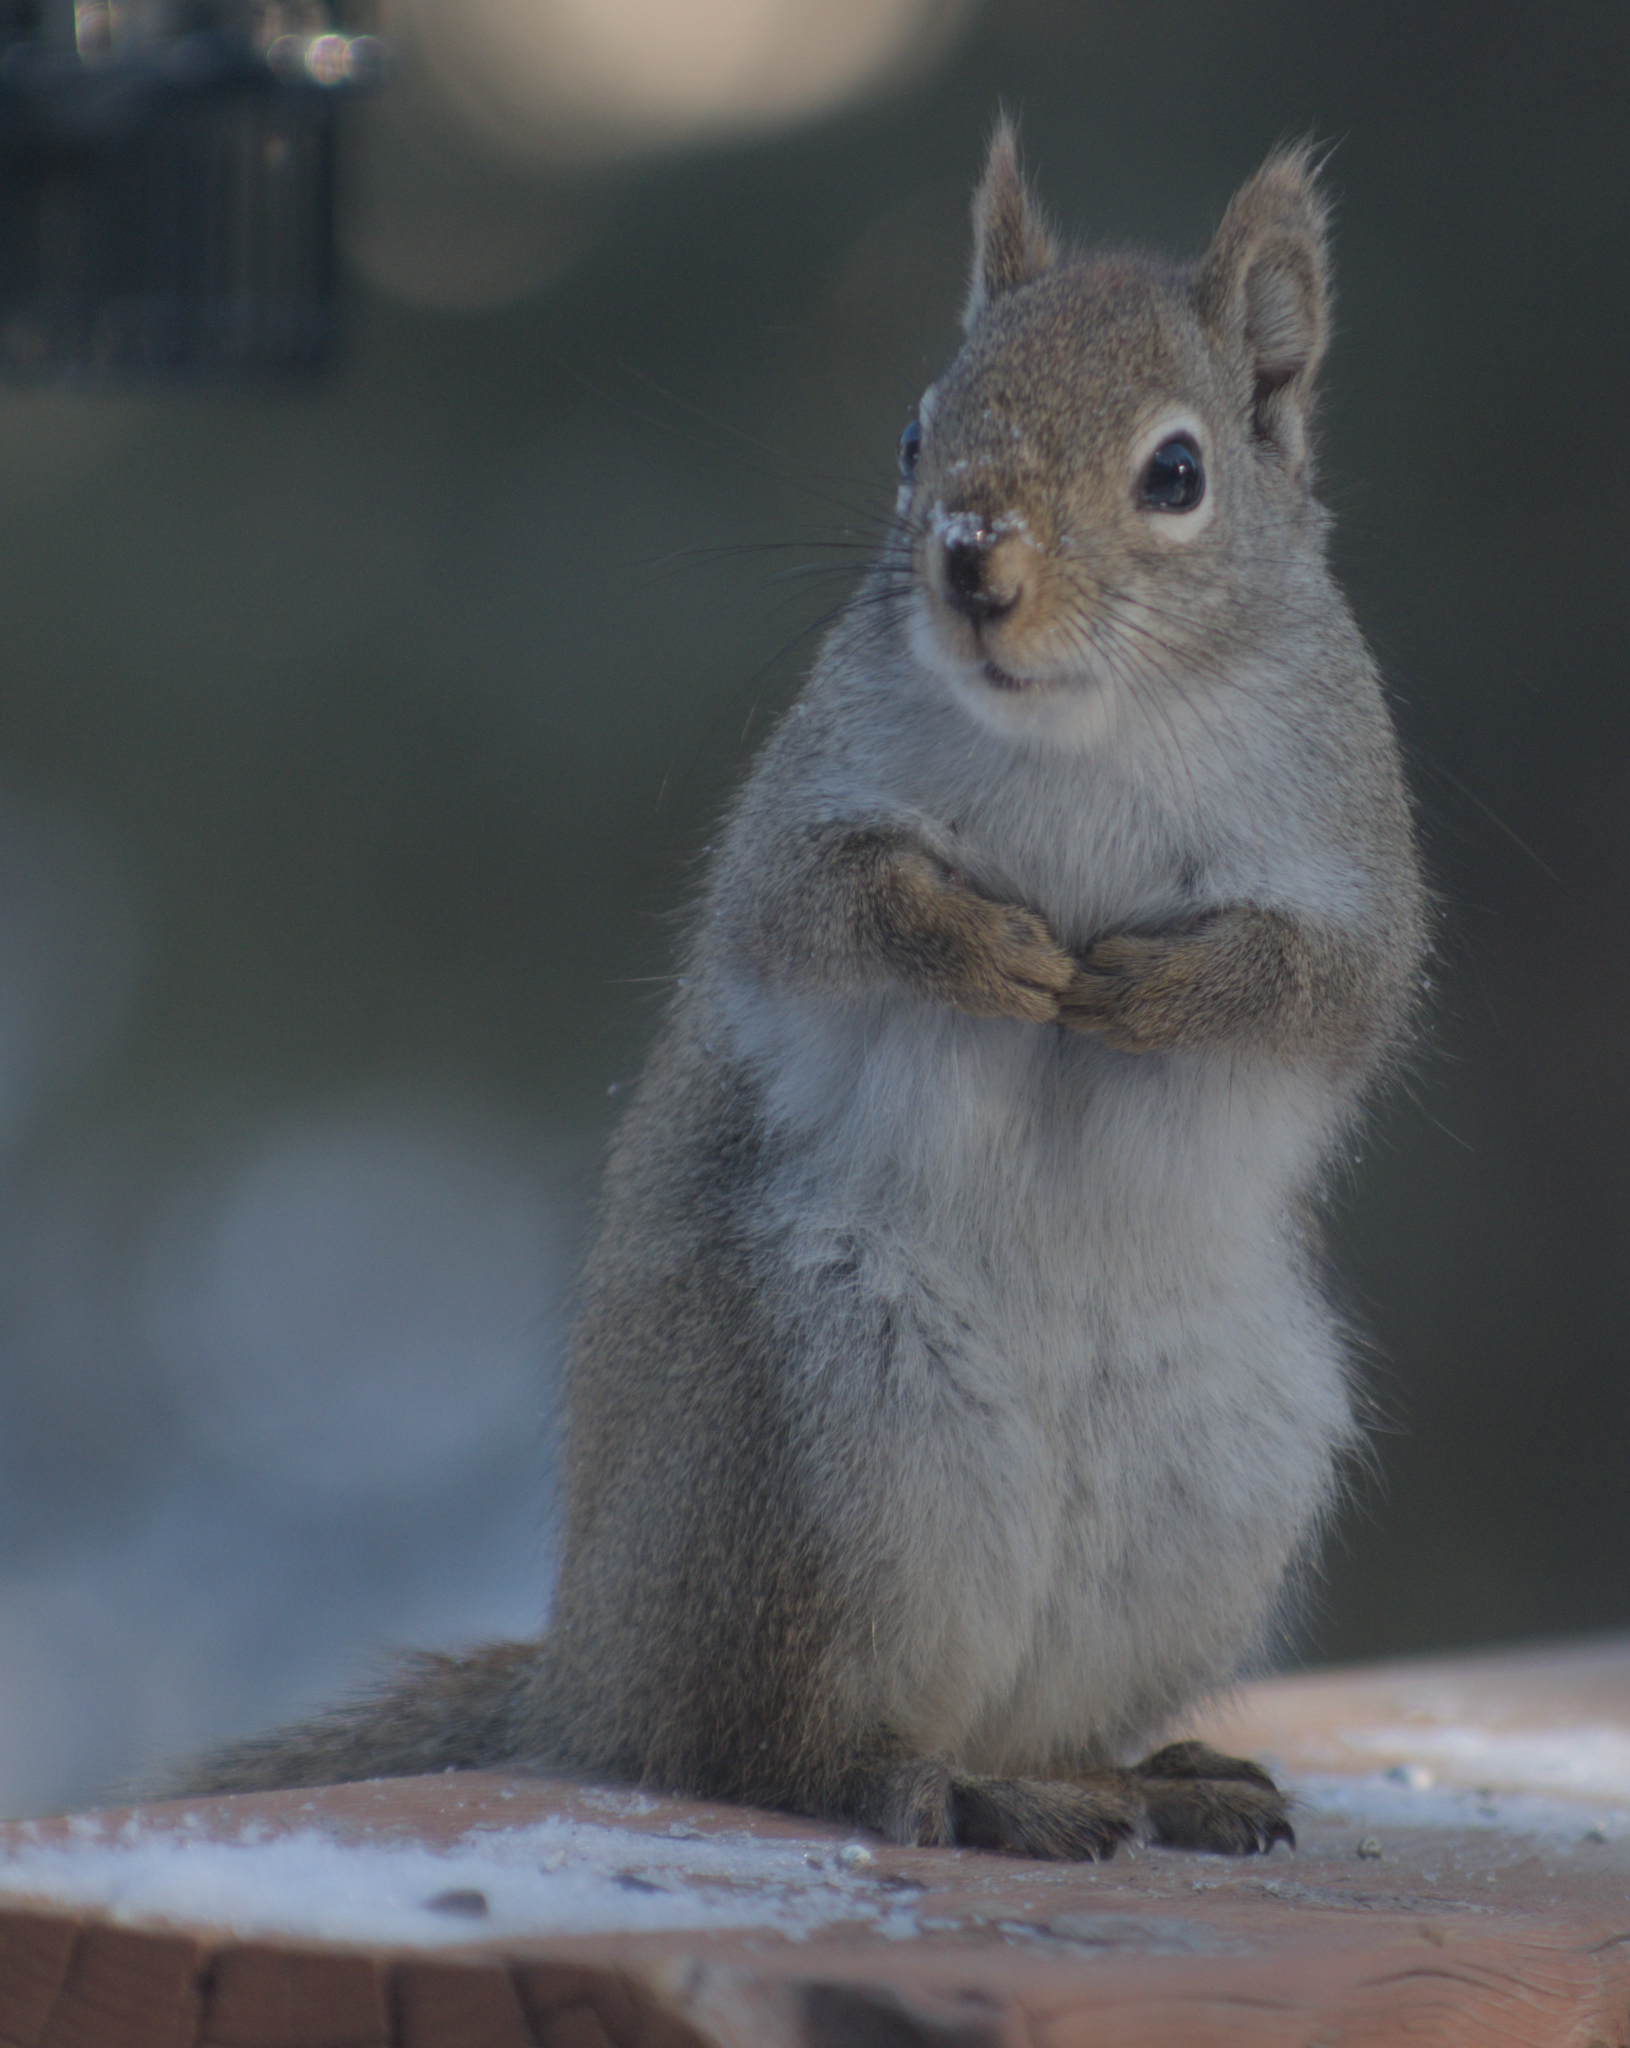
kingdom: Animalia
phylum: Chordata
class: Mammalia
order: Rodentia
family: Sciuridae
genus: Tamiasciurus
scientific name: Tamiasciurus hudsonicus
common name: Red squirrel
